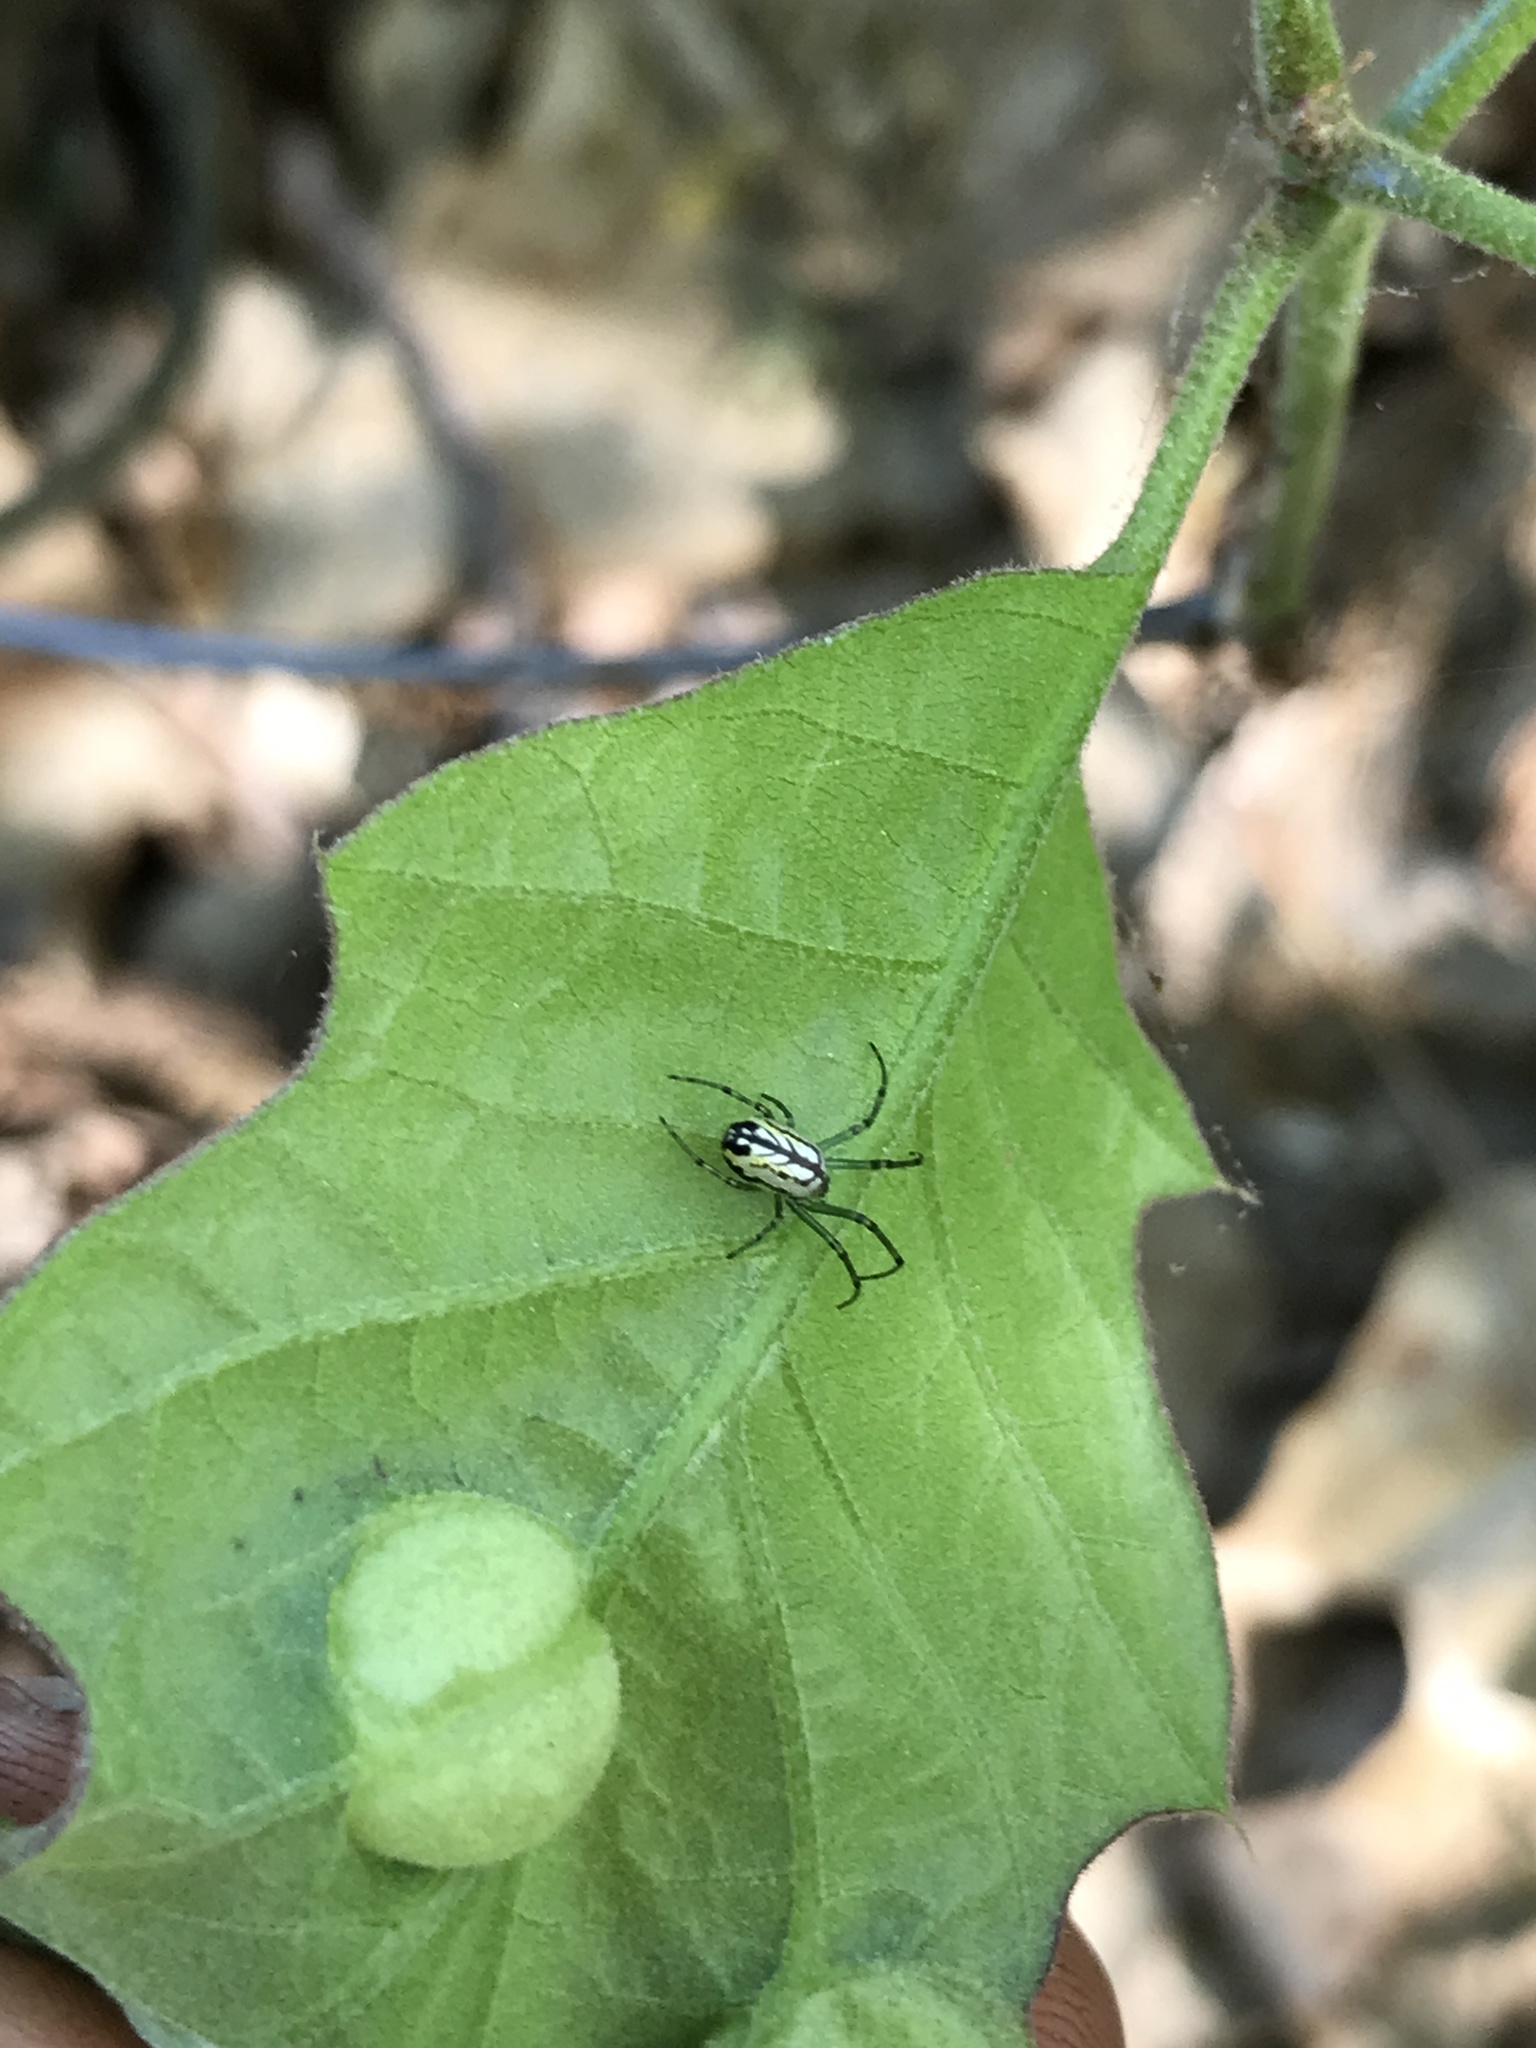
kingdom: Animalia
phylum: Arthropoda
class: Arachnida
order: Araneae
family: Tetragnathidae
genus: Leucauge
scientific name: Leucauge venusta
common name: Longjawed orb weavers
